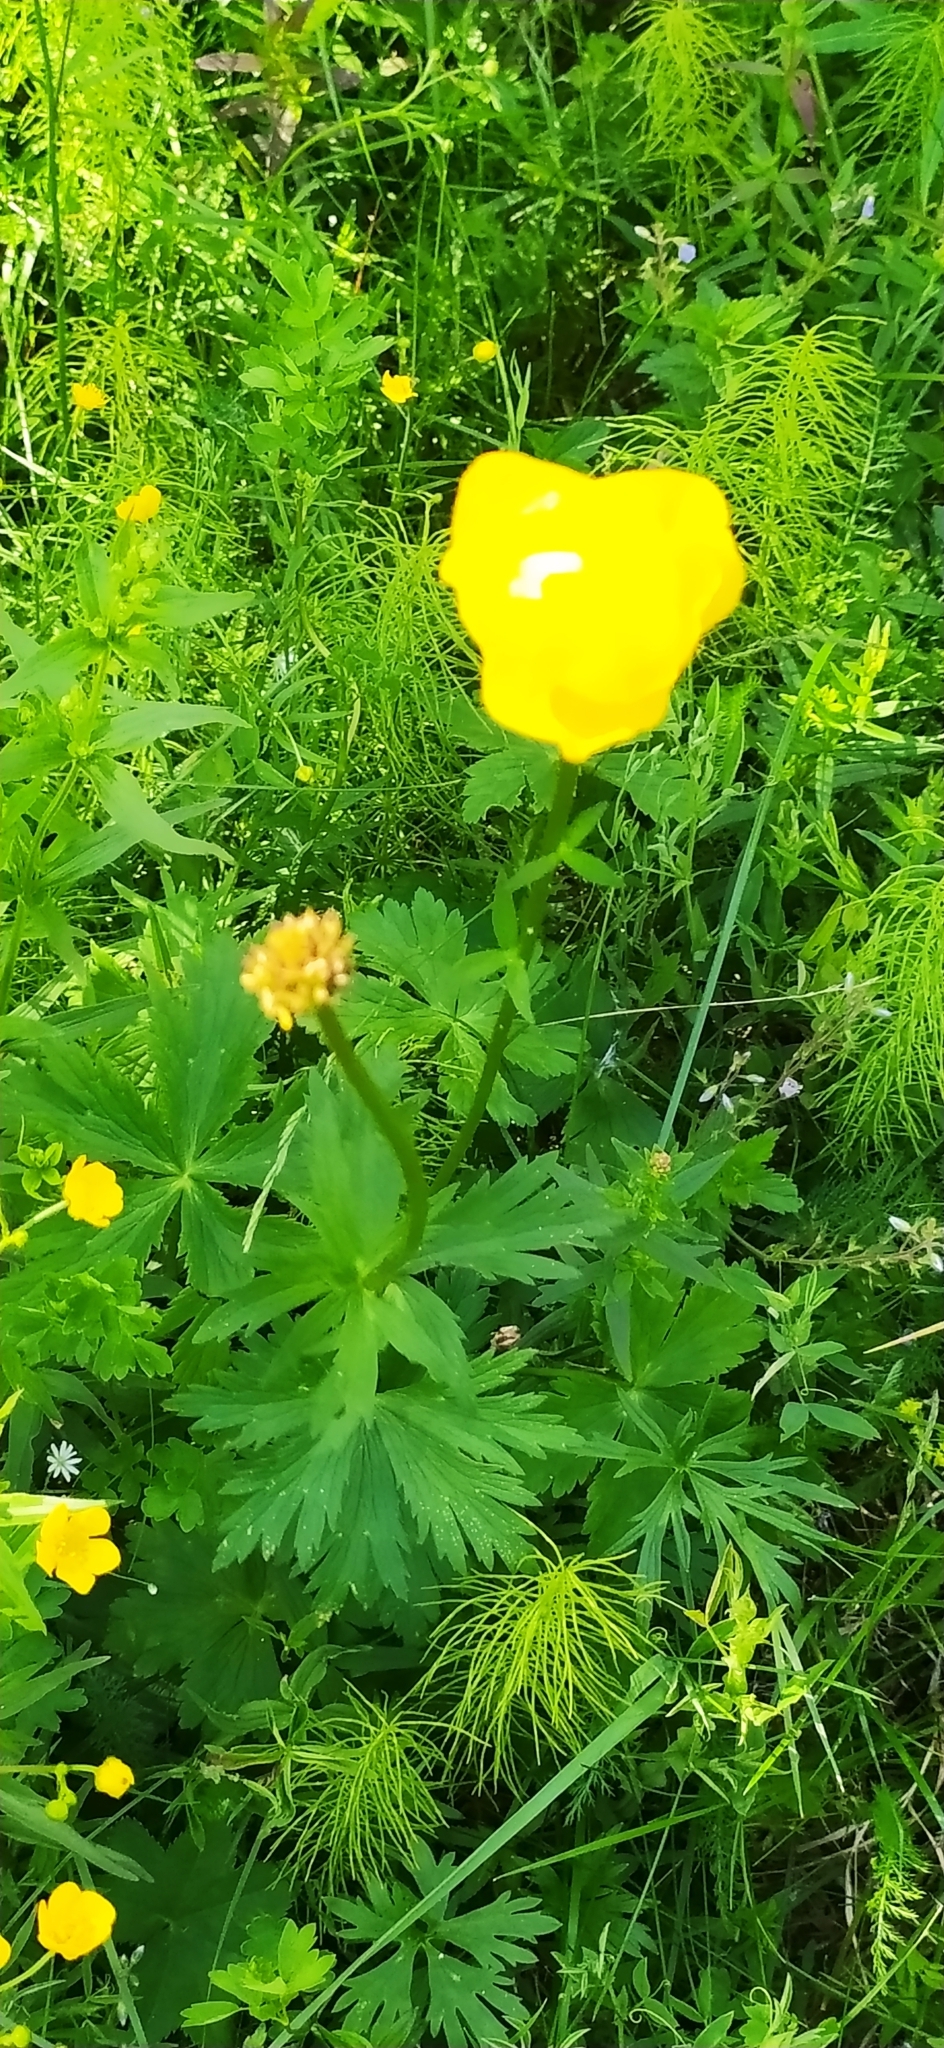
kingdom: Plantae
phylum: Tracheophyta
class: Magnoliopsida
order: Ranunculales
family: Ranunculaceae
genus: Trollius
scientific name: Trollius europaeus
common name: European globeflower
